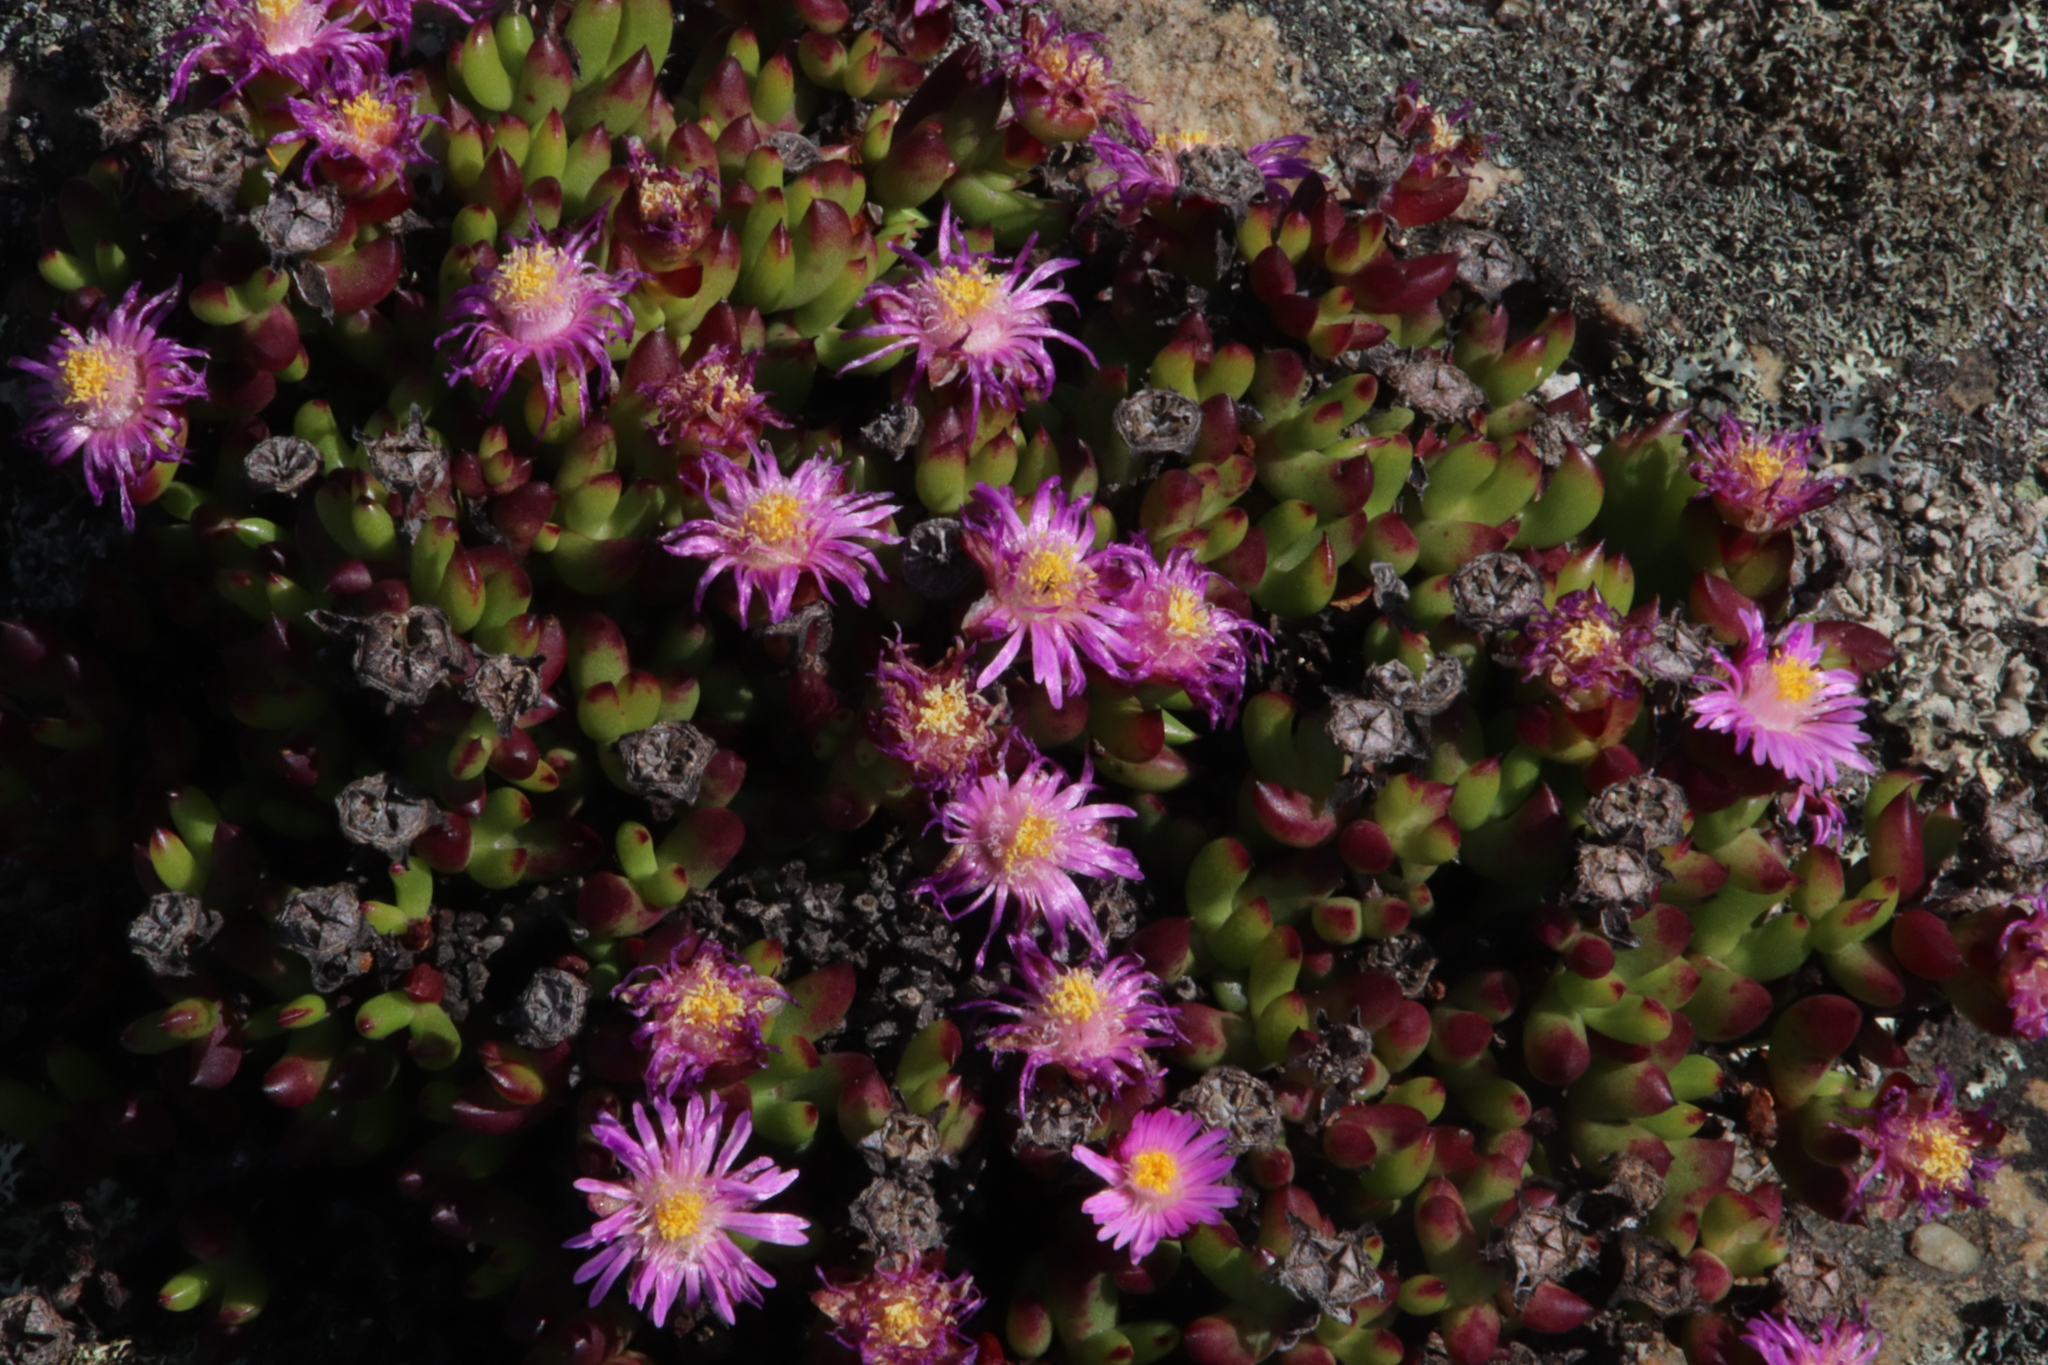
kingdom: Plantae
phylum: Tracheophyta
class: Magnoliopsida
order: Caryophyllales
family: Aizoaceae
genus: Esterhuysenia
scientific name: Esterhuysenia drepanophylla
